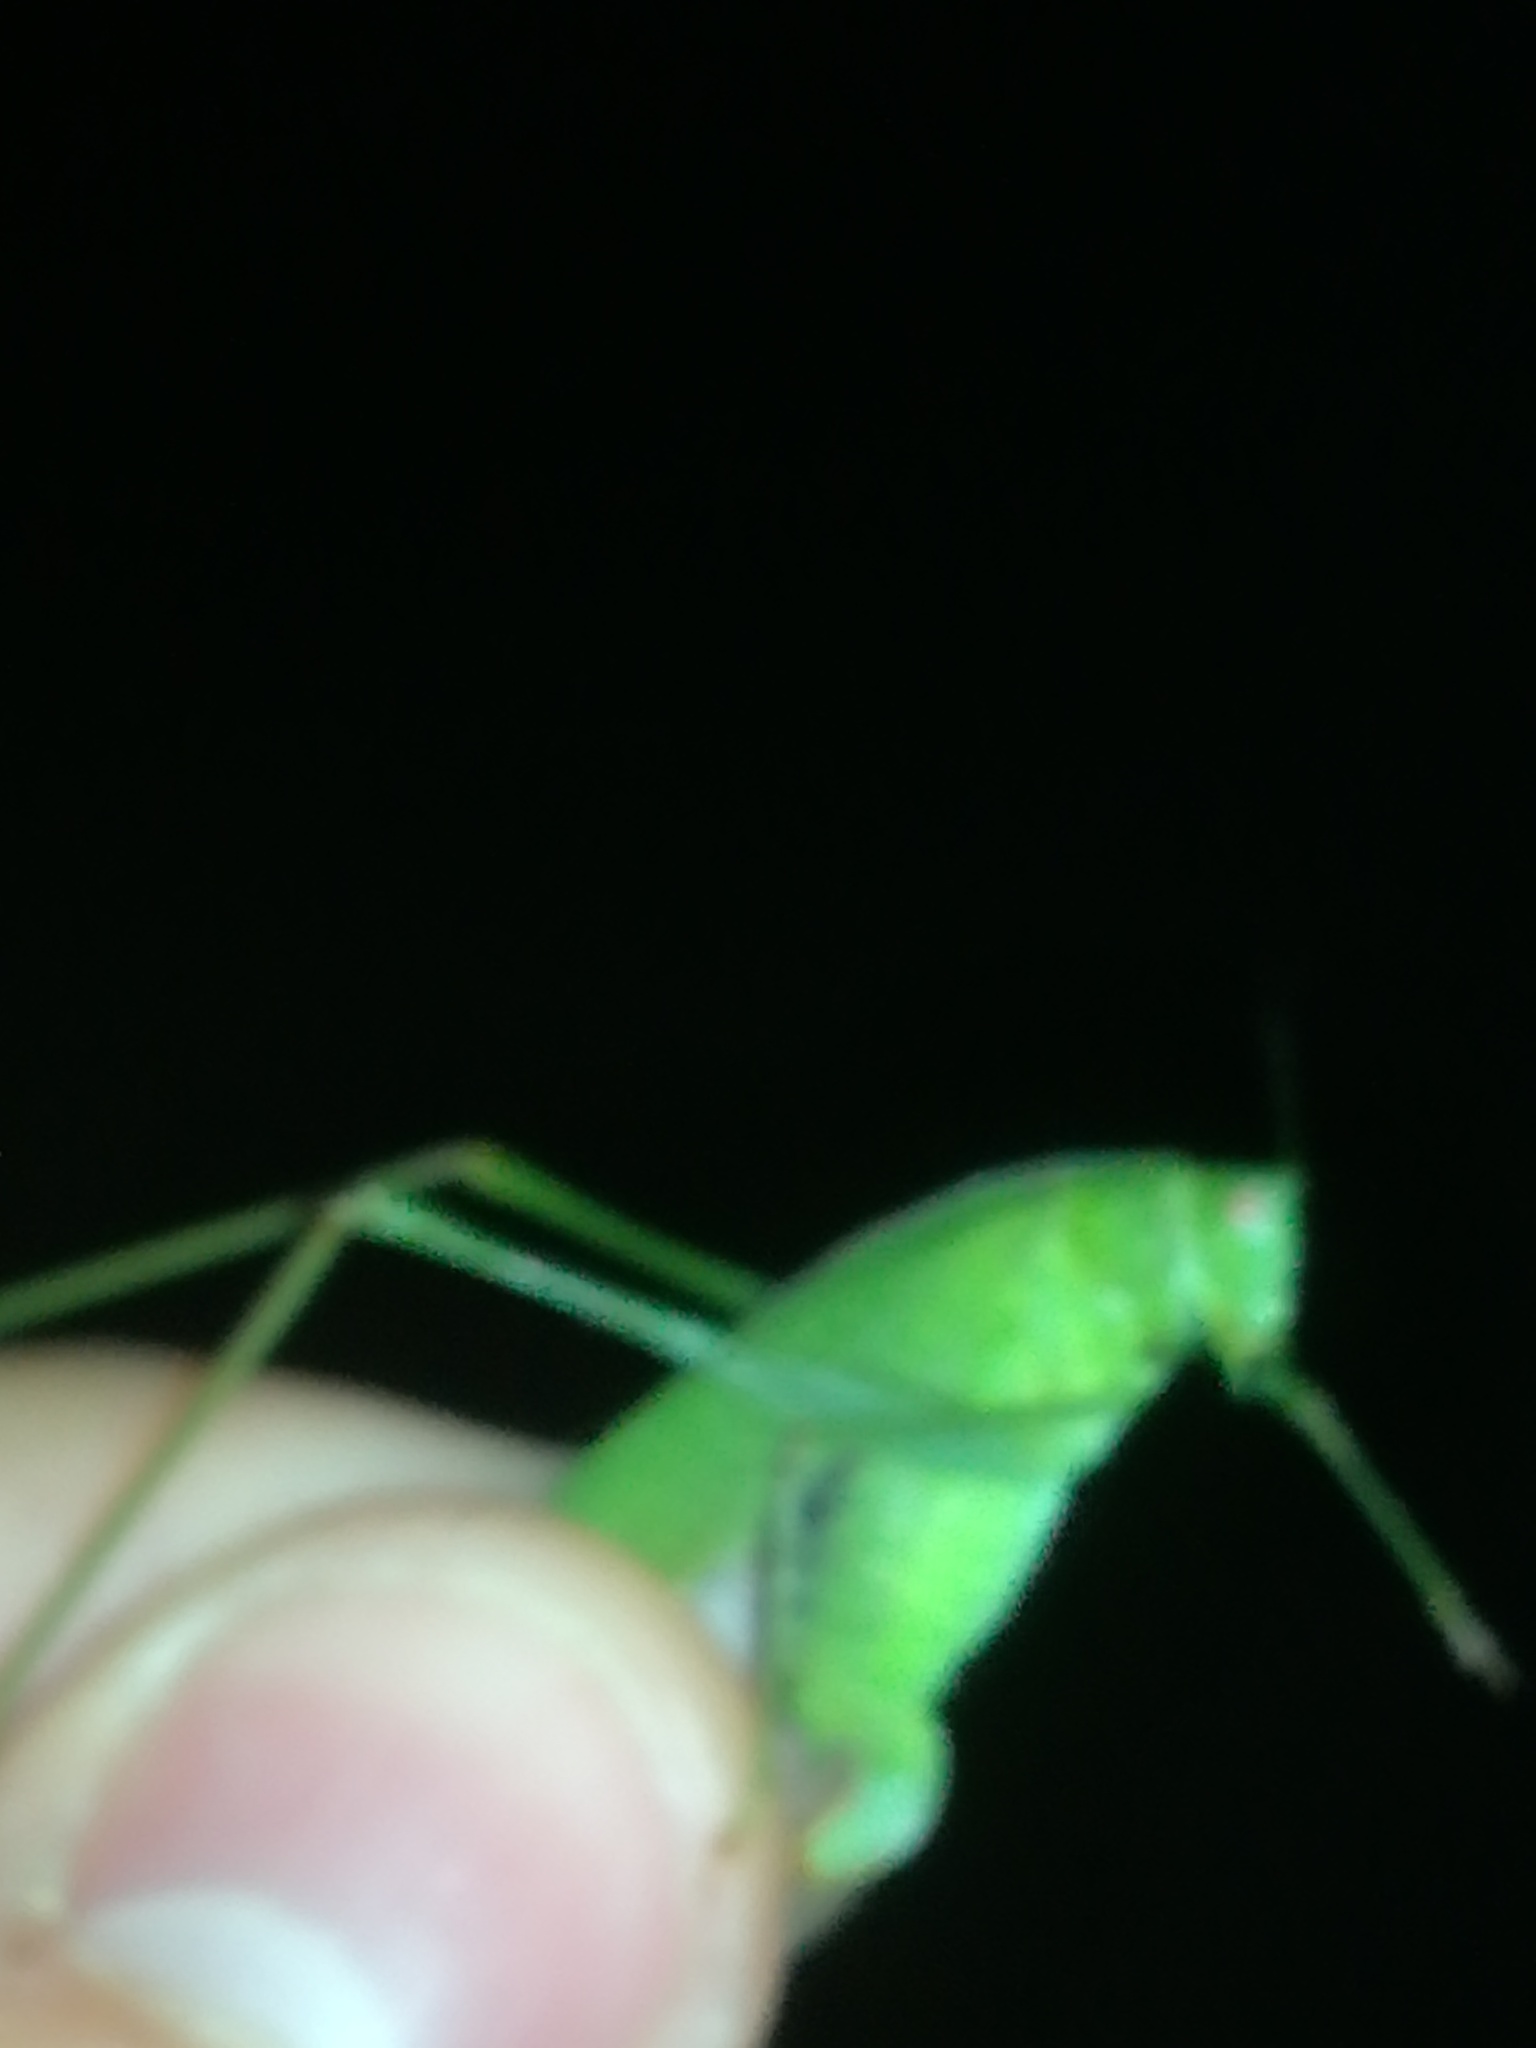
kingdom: Animalia
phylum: Arthropoda
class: Insecta
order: Orthoptera
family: Tettigoniidae
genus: Phaneroptera
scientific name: Phaneroptera nana
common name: Southern sickle bush-cricket
